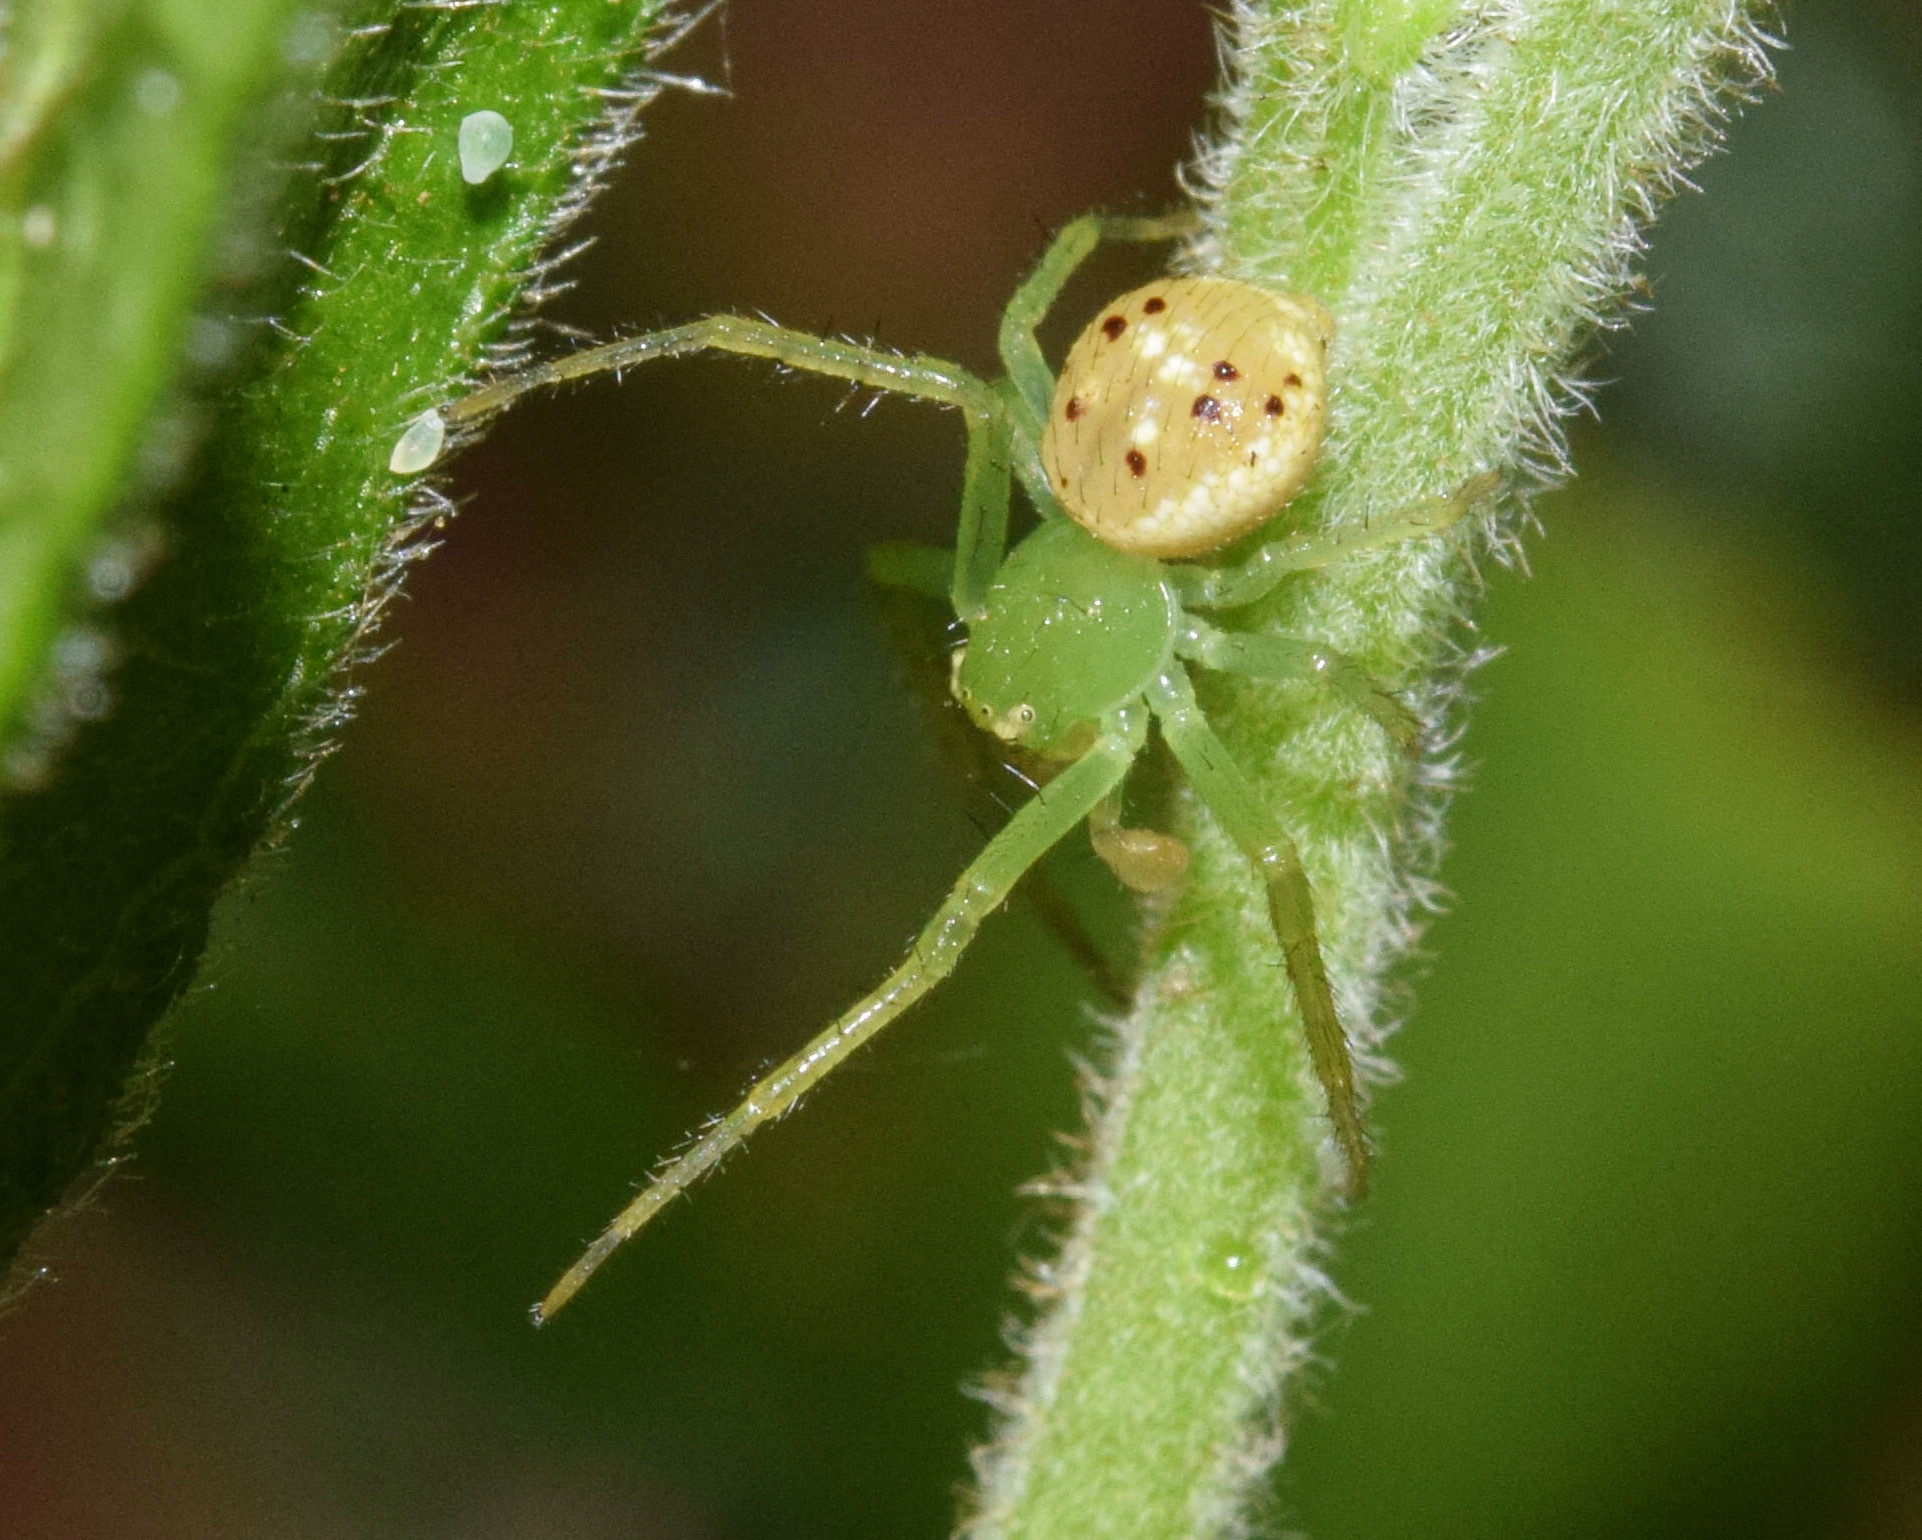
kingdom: Animalia
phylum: Arthropoda
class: Arachnida
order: Araneae
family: Thomisidae
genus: Diaea
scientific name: Diaea puncta
